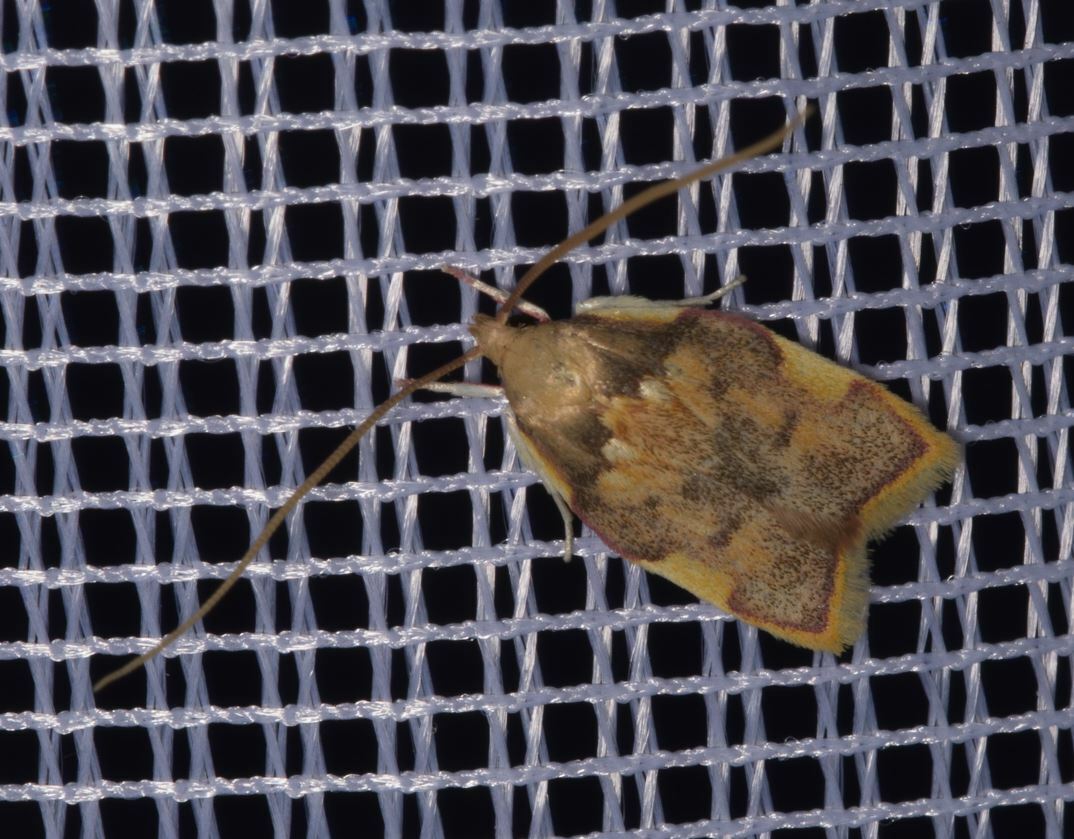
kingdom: Animalia
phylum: Arthropoda
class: Insecta
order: Lepidoptera
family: Peleopodidae
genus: Carcina
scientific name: Carcina quercana
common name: Moth
